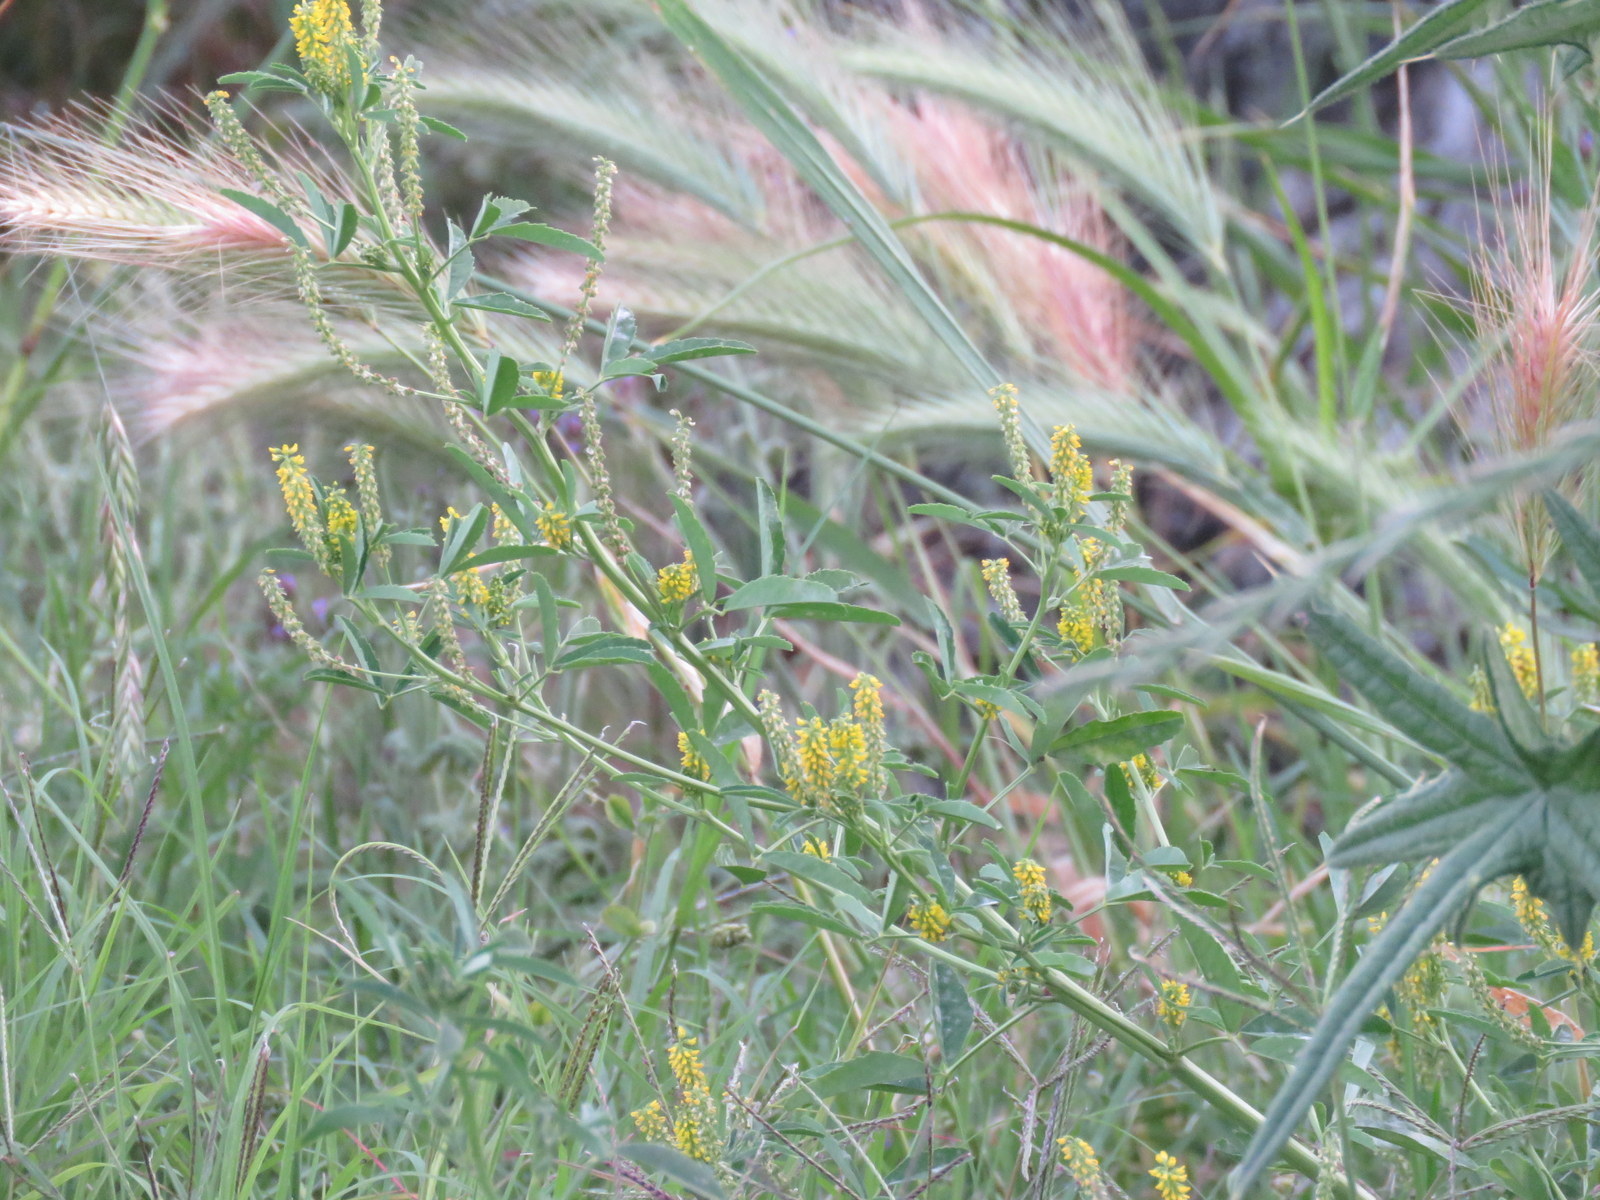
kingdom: Plantae
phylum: Tracheophyta
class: Magnoliopsida
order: Fabales
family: Fabaceae
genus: Melilotus
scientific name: Melilotus indicus
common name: Small melilot
